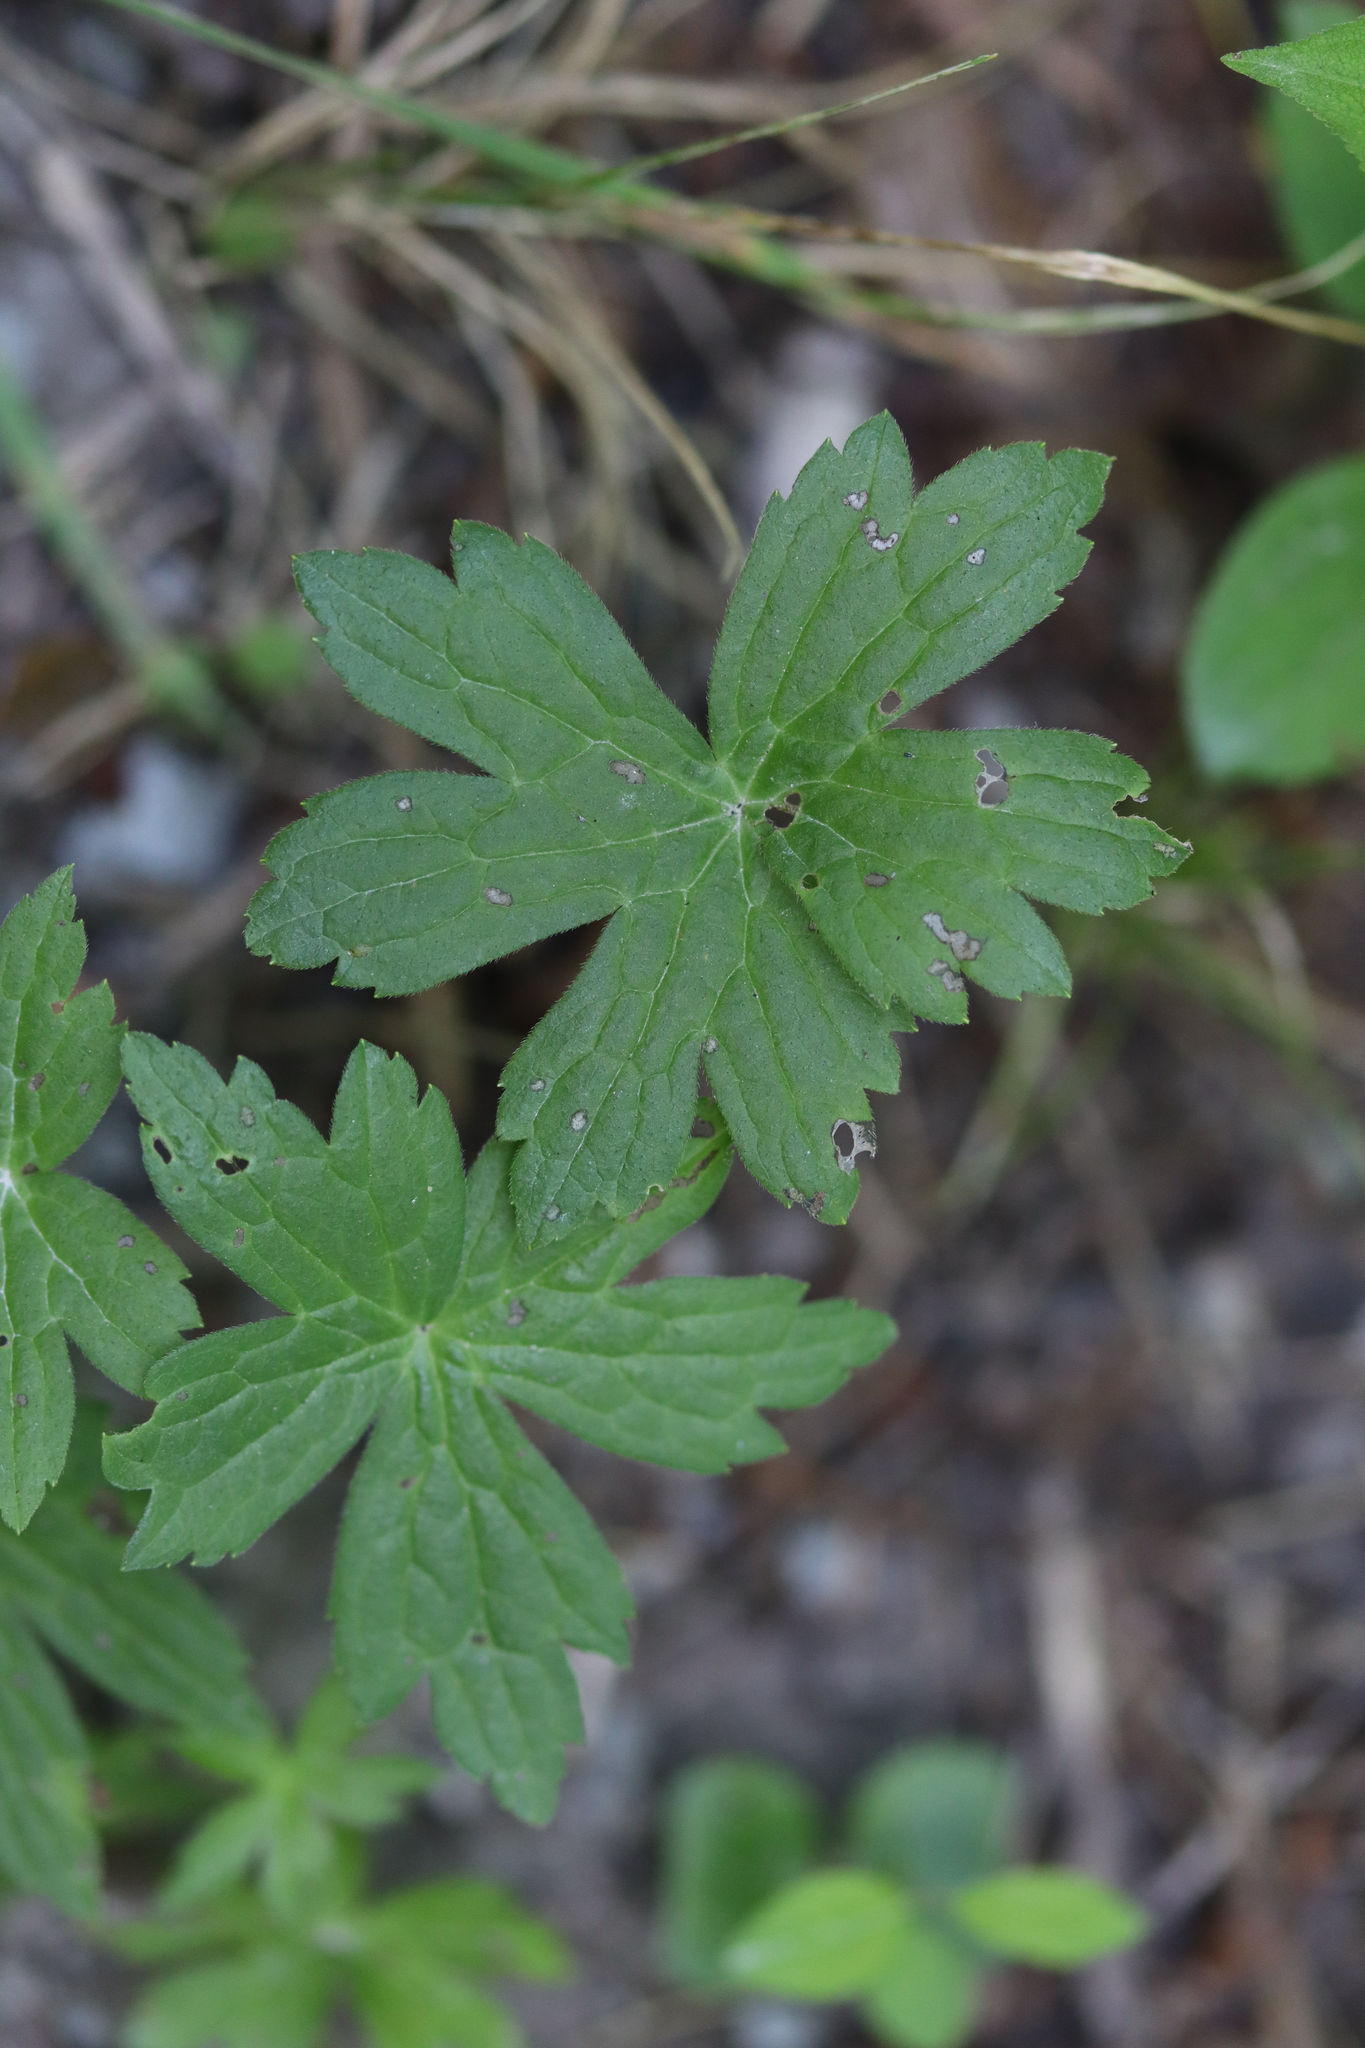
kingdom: Plantae
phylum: Tracheophyta
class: Magnoliopsida
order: Ranunculales
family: Ranunculaceae
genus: Anemonastrum
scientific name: Anemonastrum canadense
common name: Canada anemone
